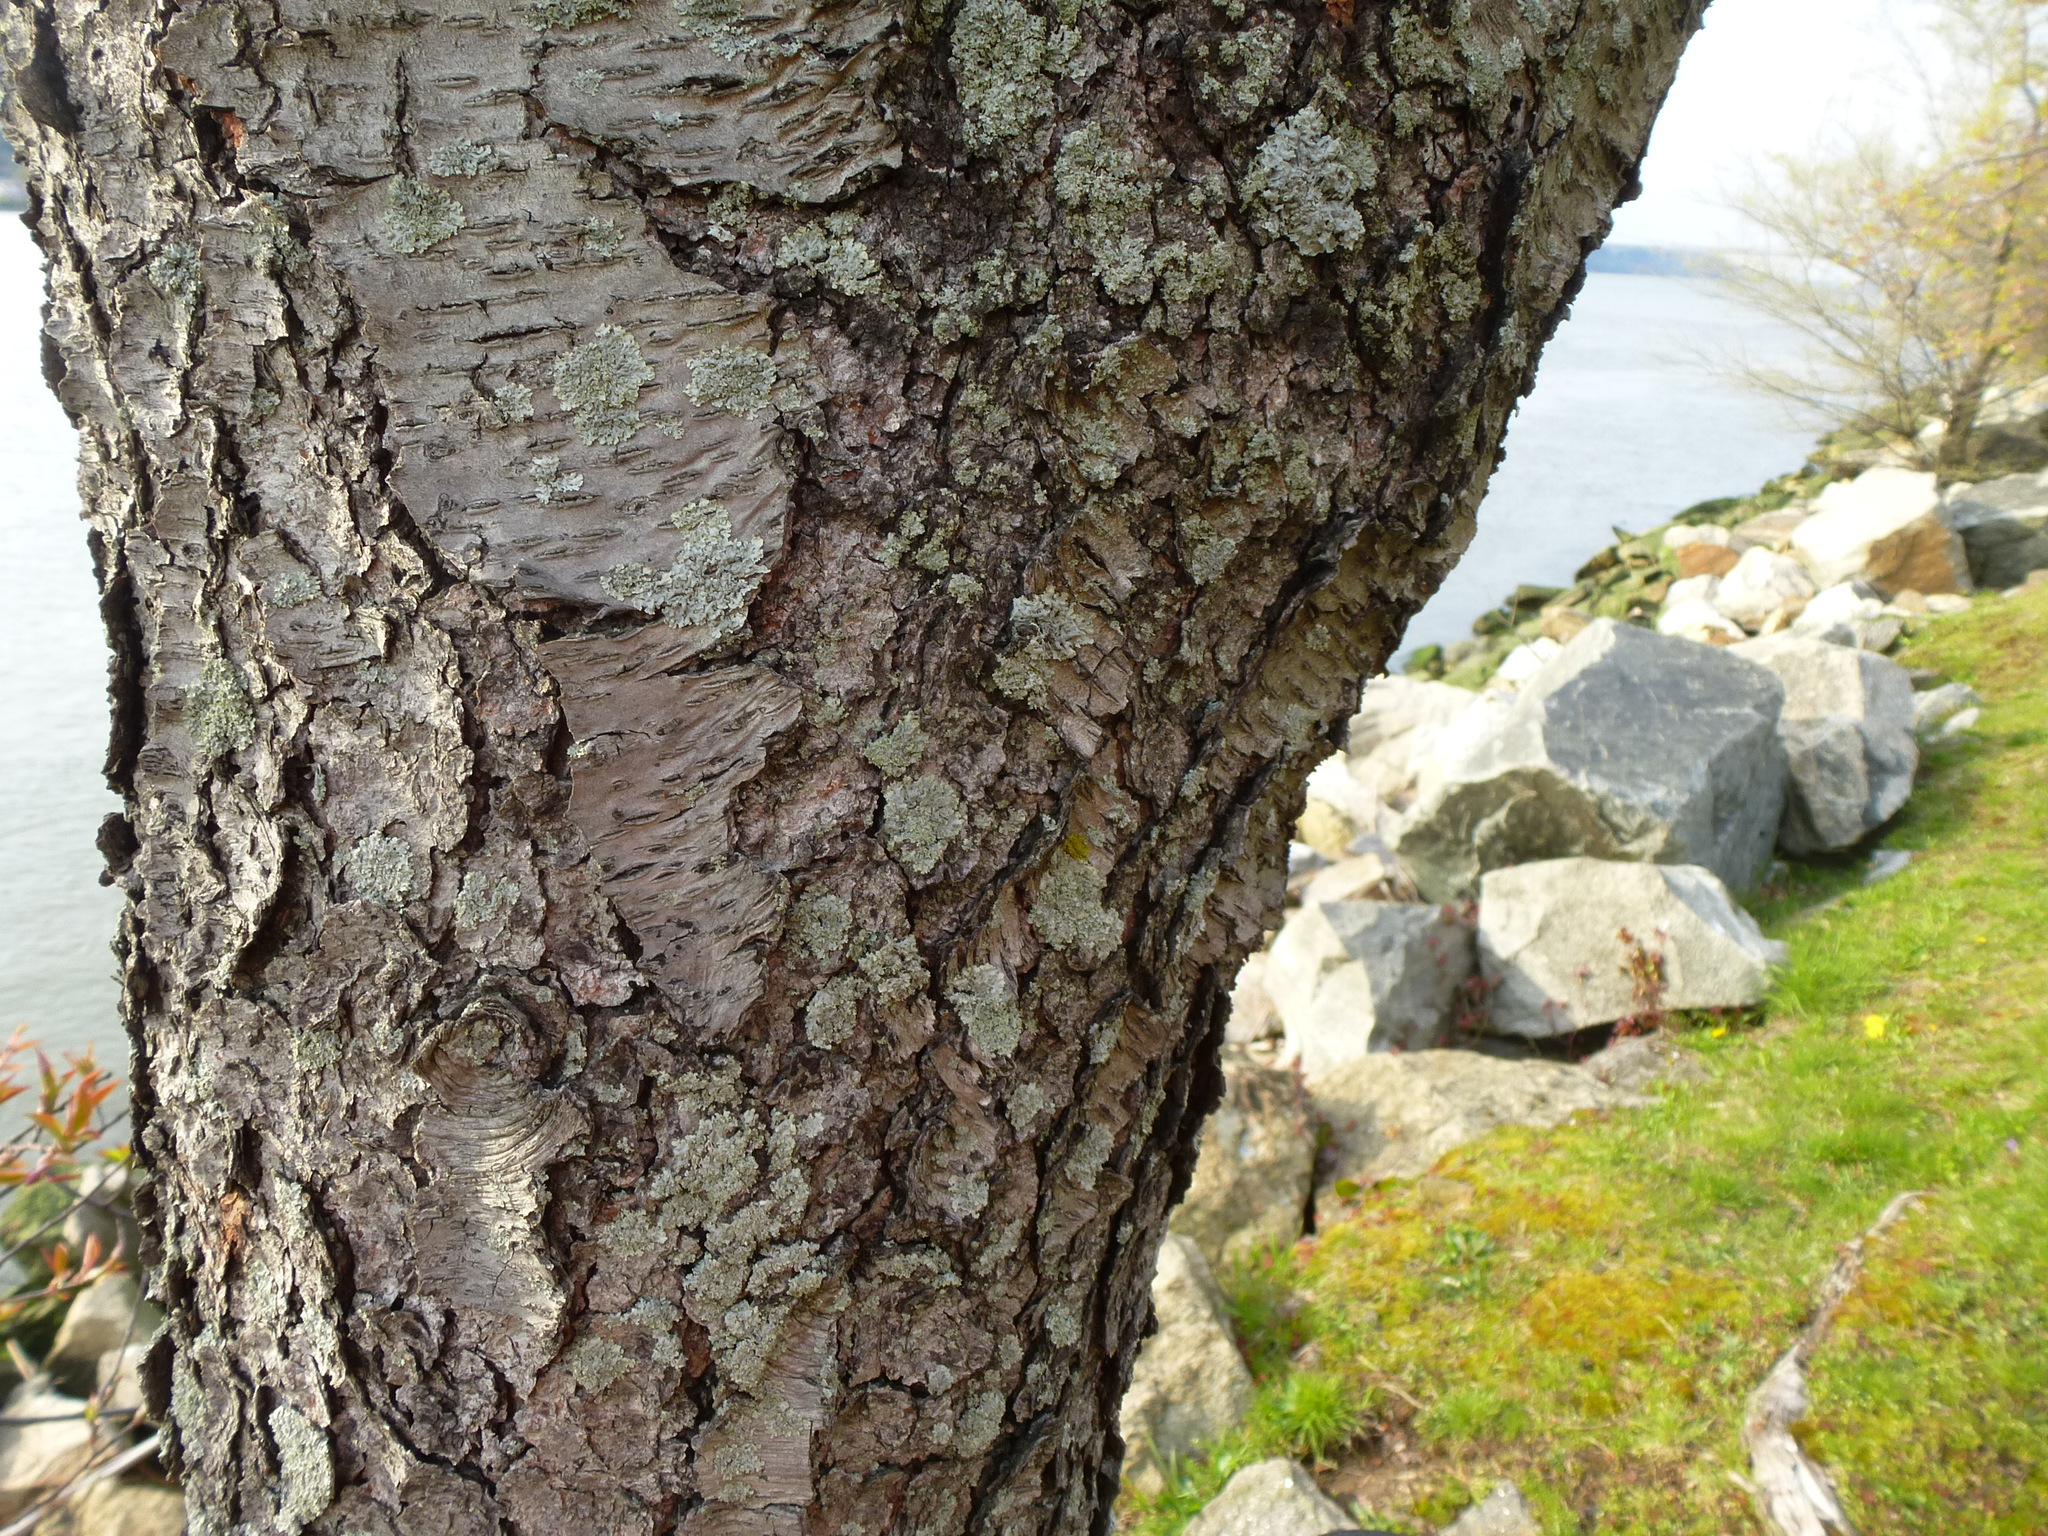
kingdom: Plantae
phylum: Tracheophyta
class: Magnoliopsida
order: Rosales
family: Rosaceae
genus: Prunus
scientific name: Prunus serotina
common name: Black cherry
